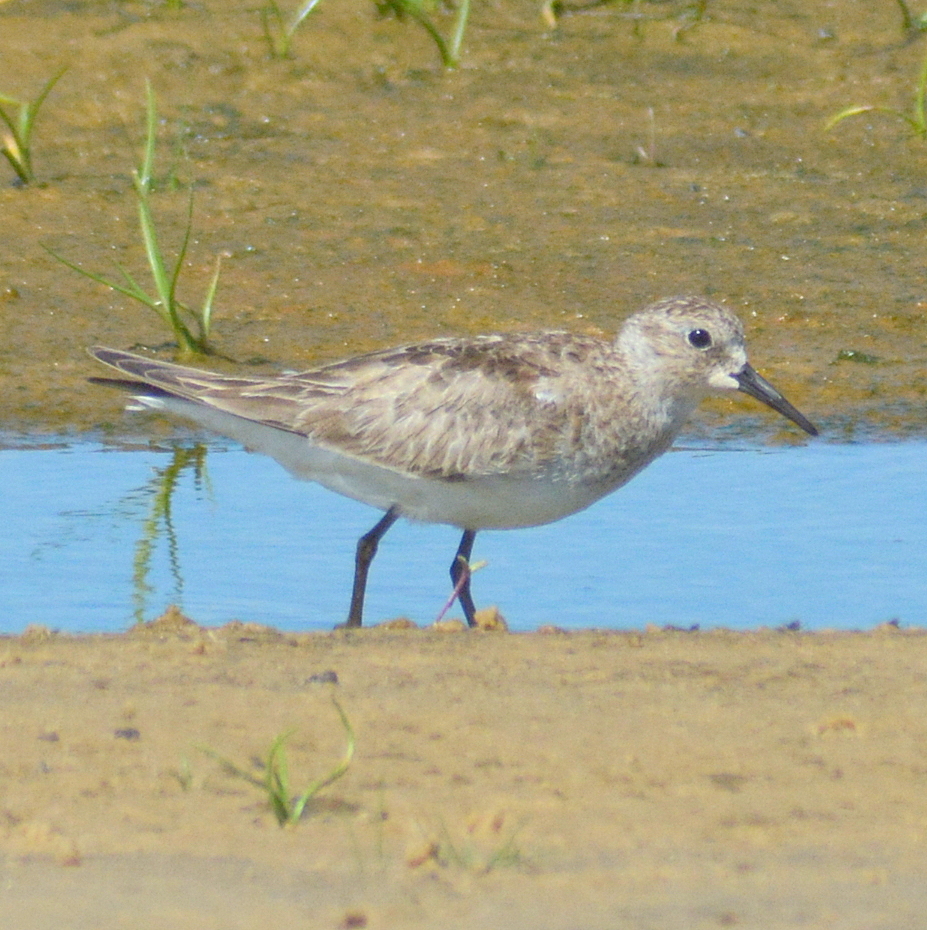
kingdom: Animalia
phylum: Chordata
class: Aves
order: Charadriiformes
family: Scolopacidae
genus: Calidris
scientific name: Calidris bairdii
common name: Baird's sandpiper
